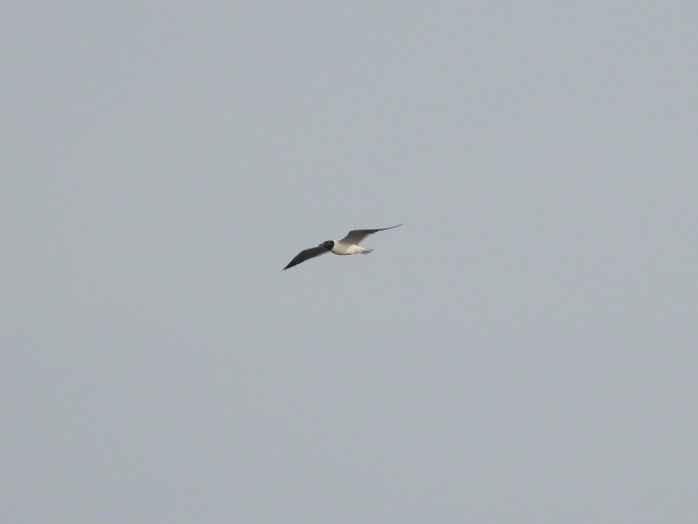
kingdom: Animalia
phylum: Chordata
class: Aves
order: Charadriiformes
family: Laridae
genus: Leucophaeus
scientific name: Leucophaeus atricilla
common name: Laughing gull
